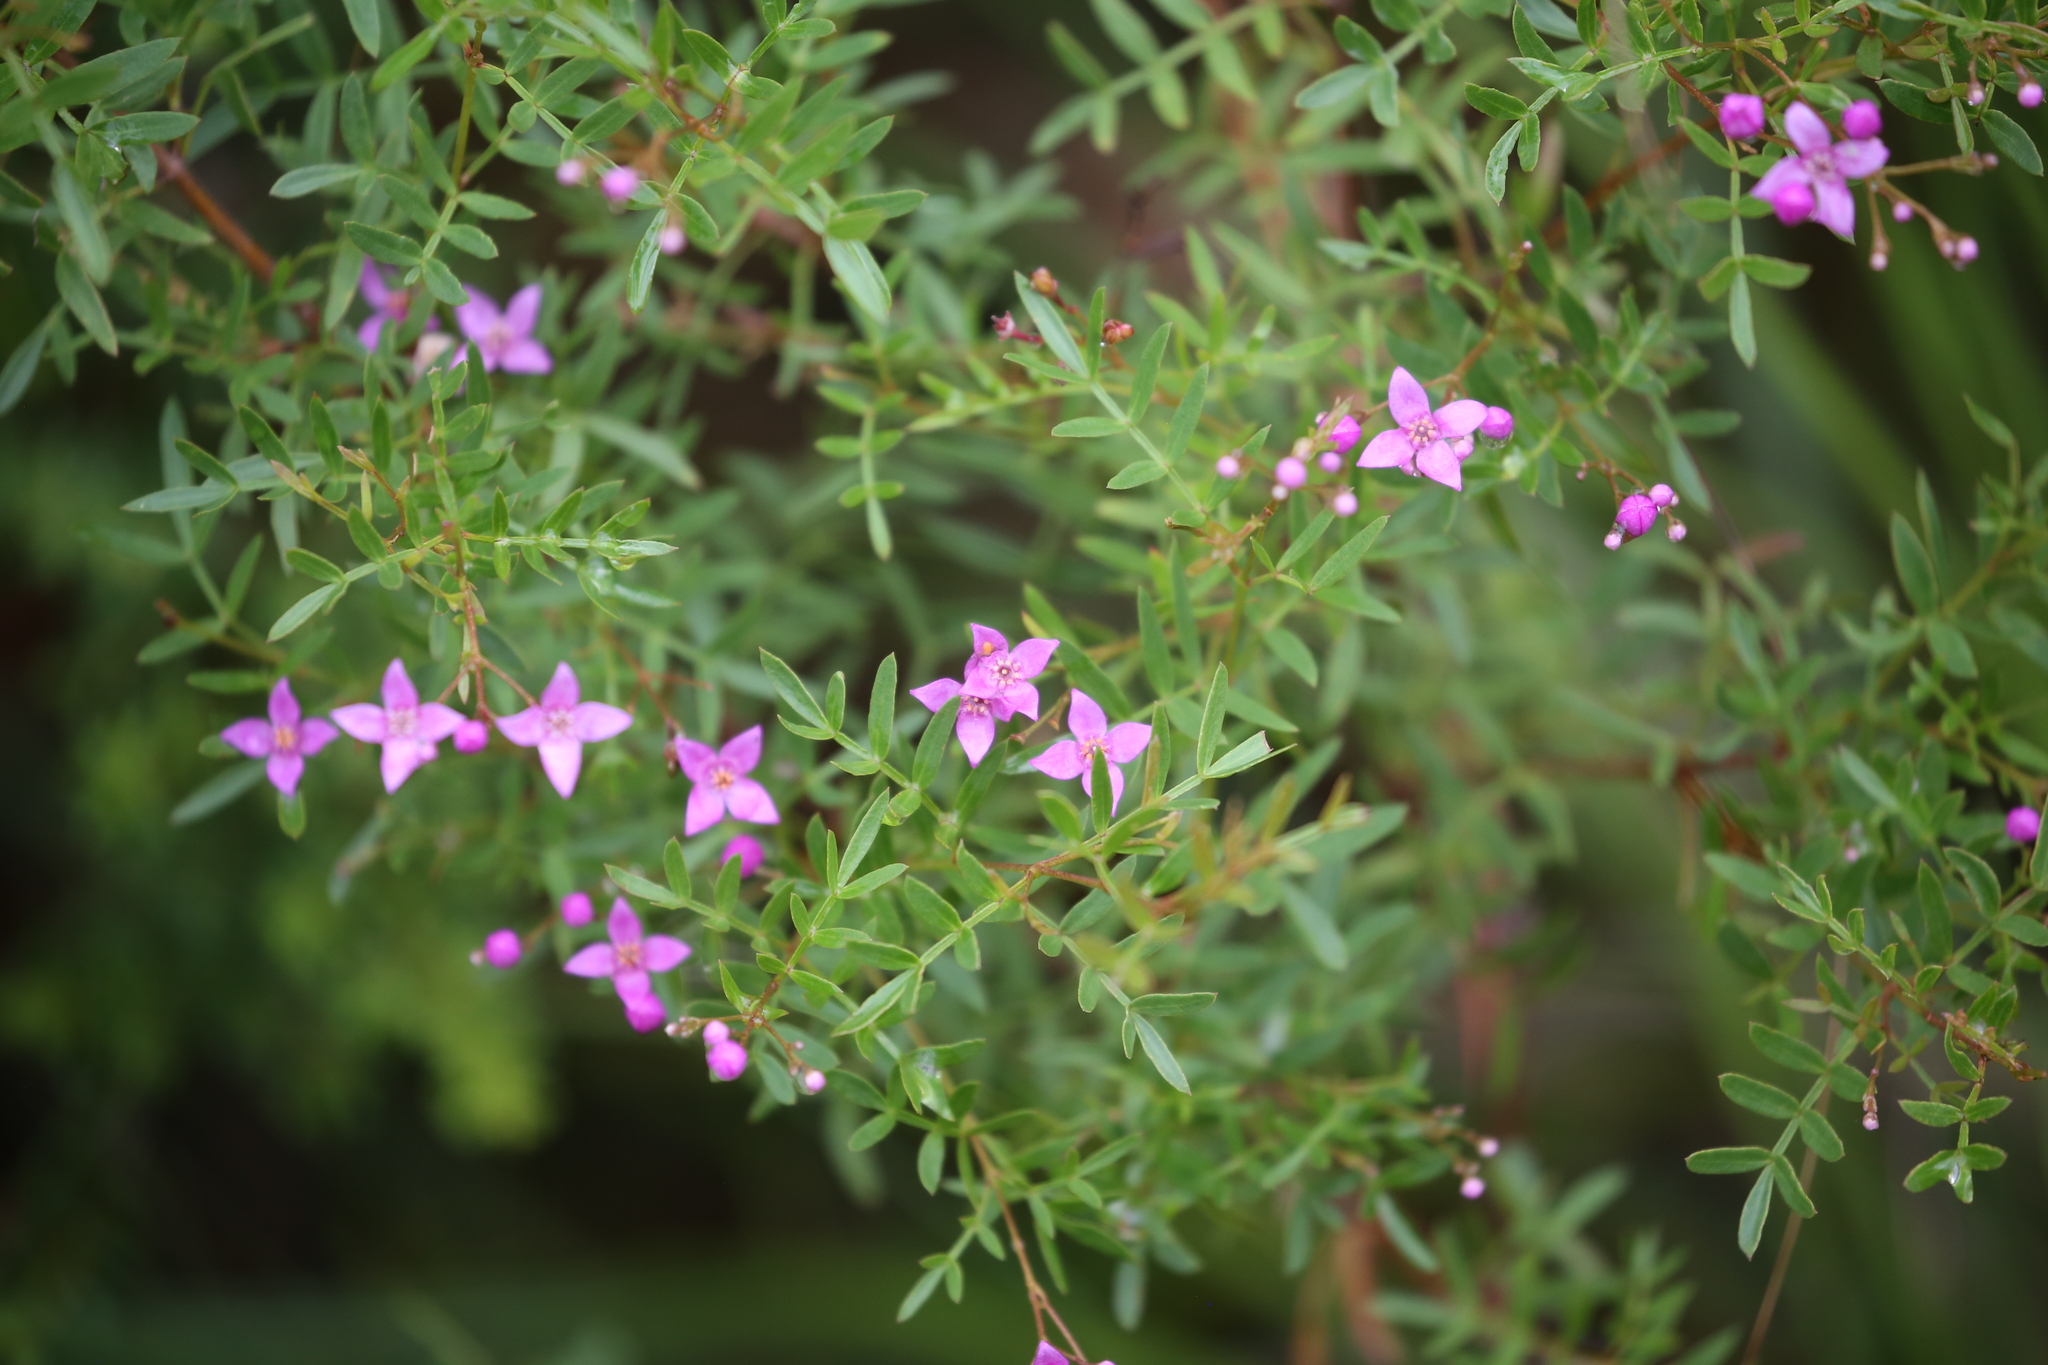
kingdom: Plantae
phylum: Tracheophyta
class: Magnoliopsida
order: Sapindales
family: Rutaceae
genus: Boronia
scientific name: Boronia rivularis
